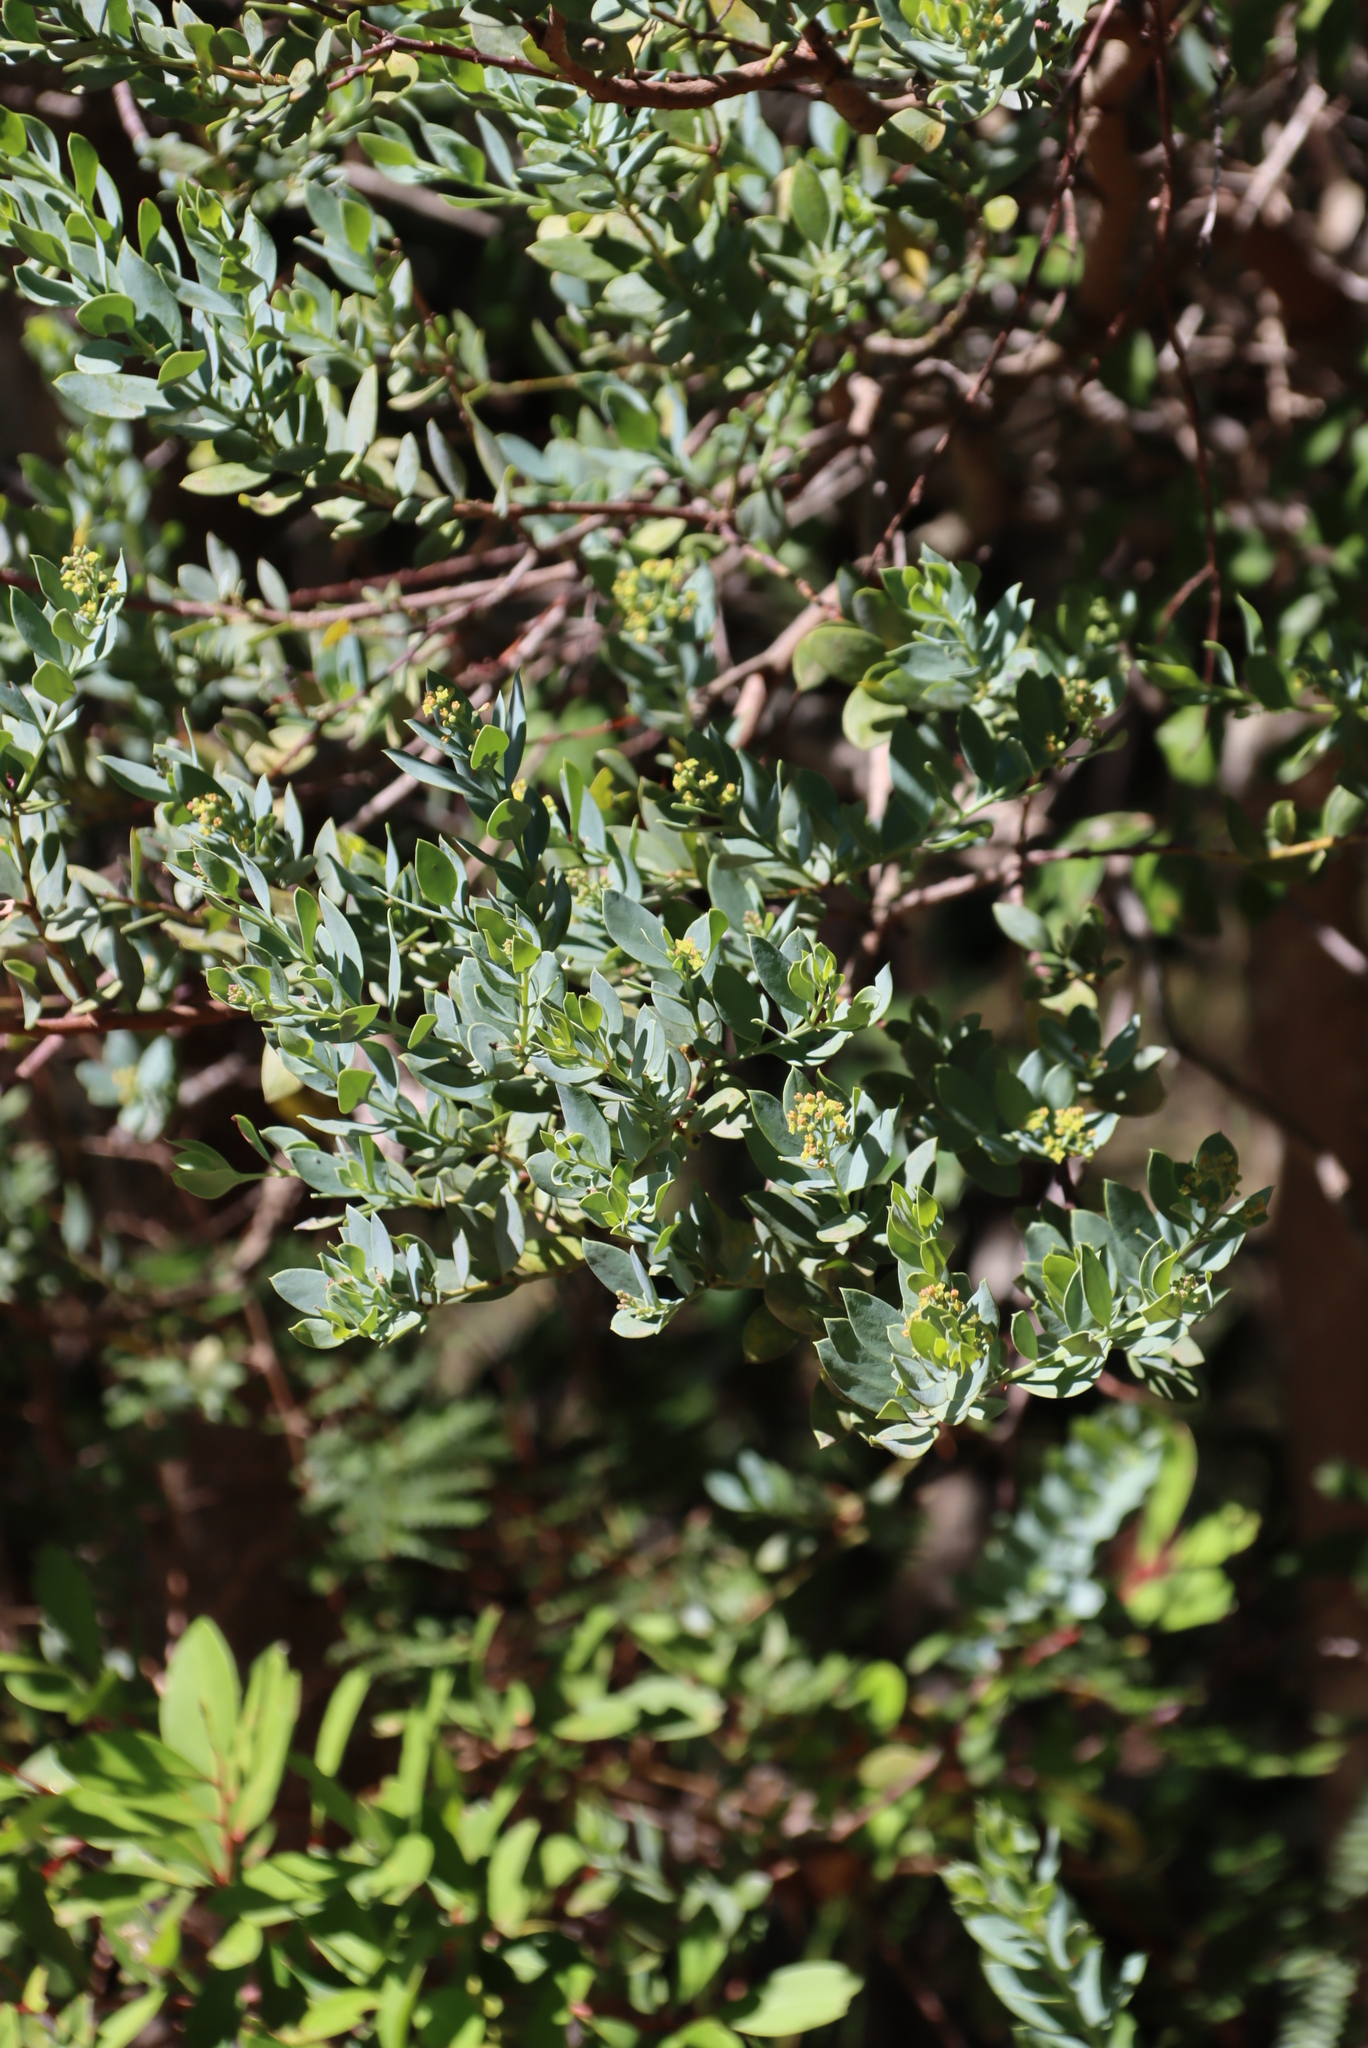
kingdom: Plantae
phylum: Tracheophyta
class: Magnoliopsida
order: Santalales
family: Santalaceae
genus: Osyris
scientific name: Osyris compressa
